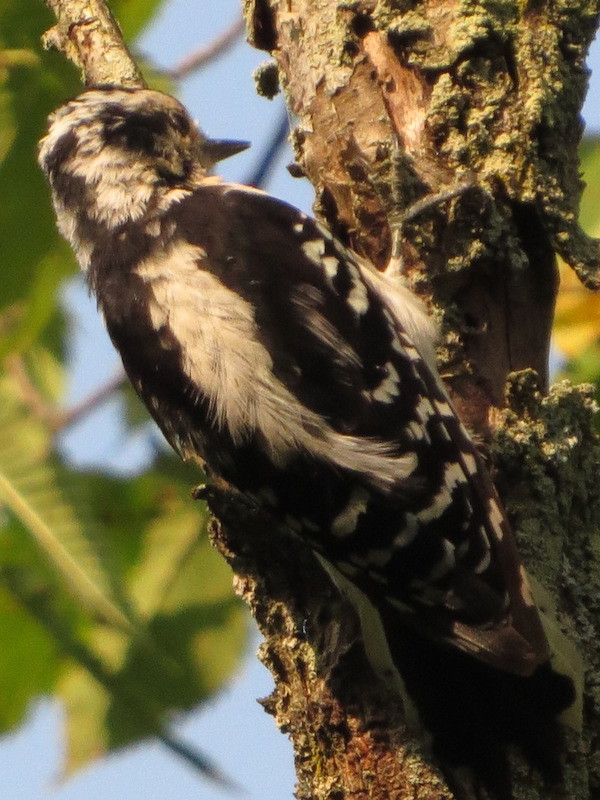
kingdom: Animalia
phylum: Chordata
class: Aves
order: Piciformes
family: Picidae
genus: Dryobates
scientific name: Dryobates pubescens
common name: Downy woodpecker
